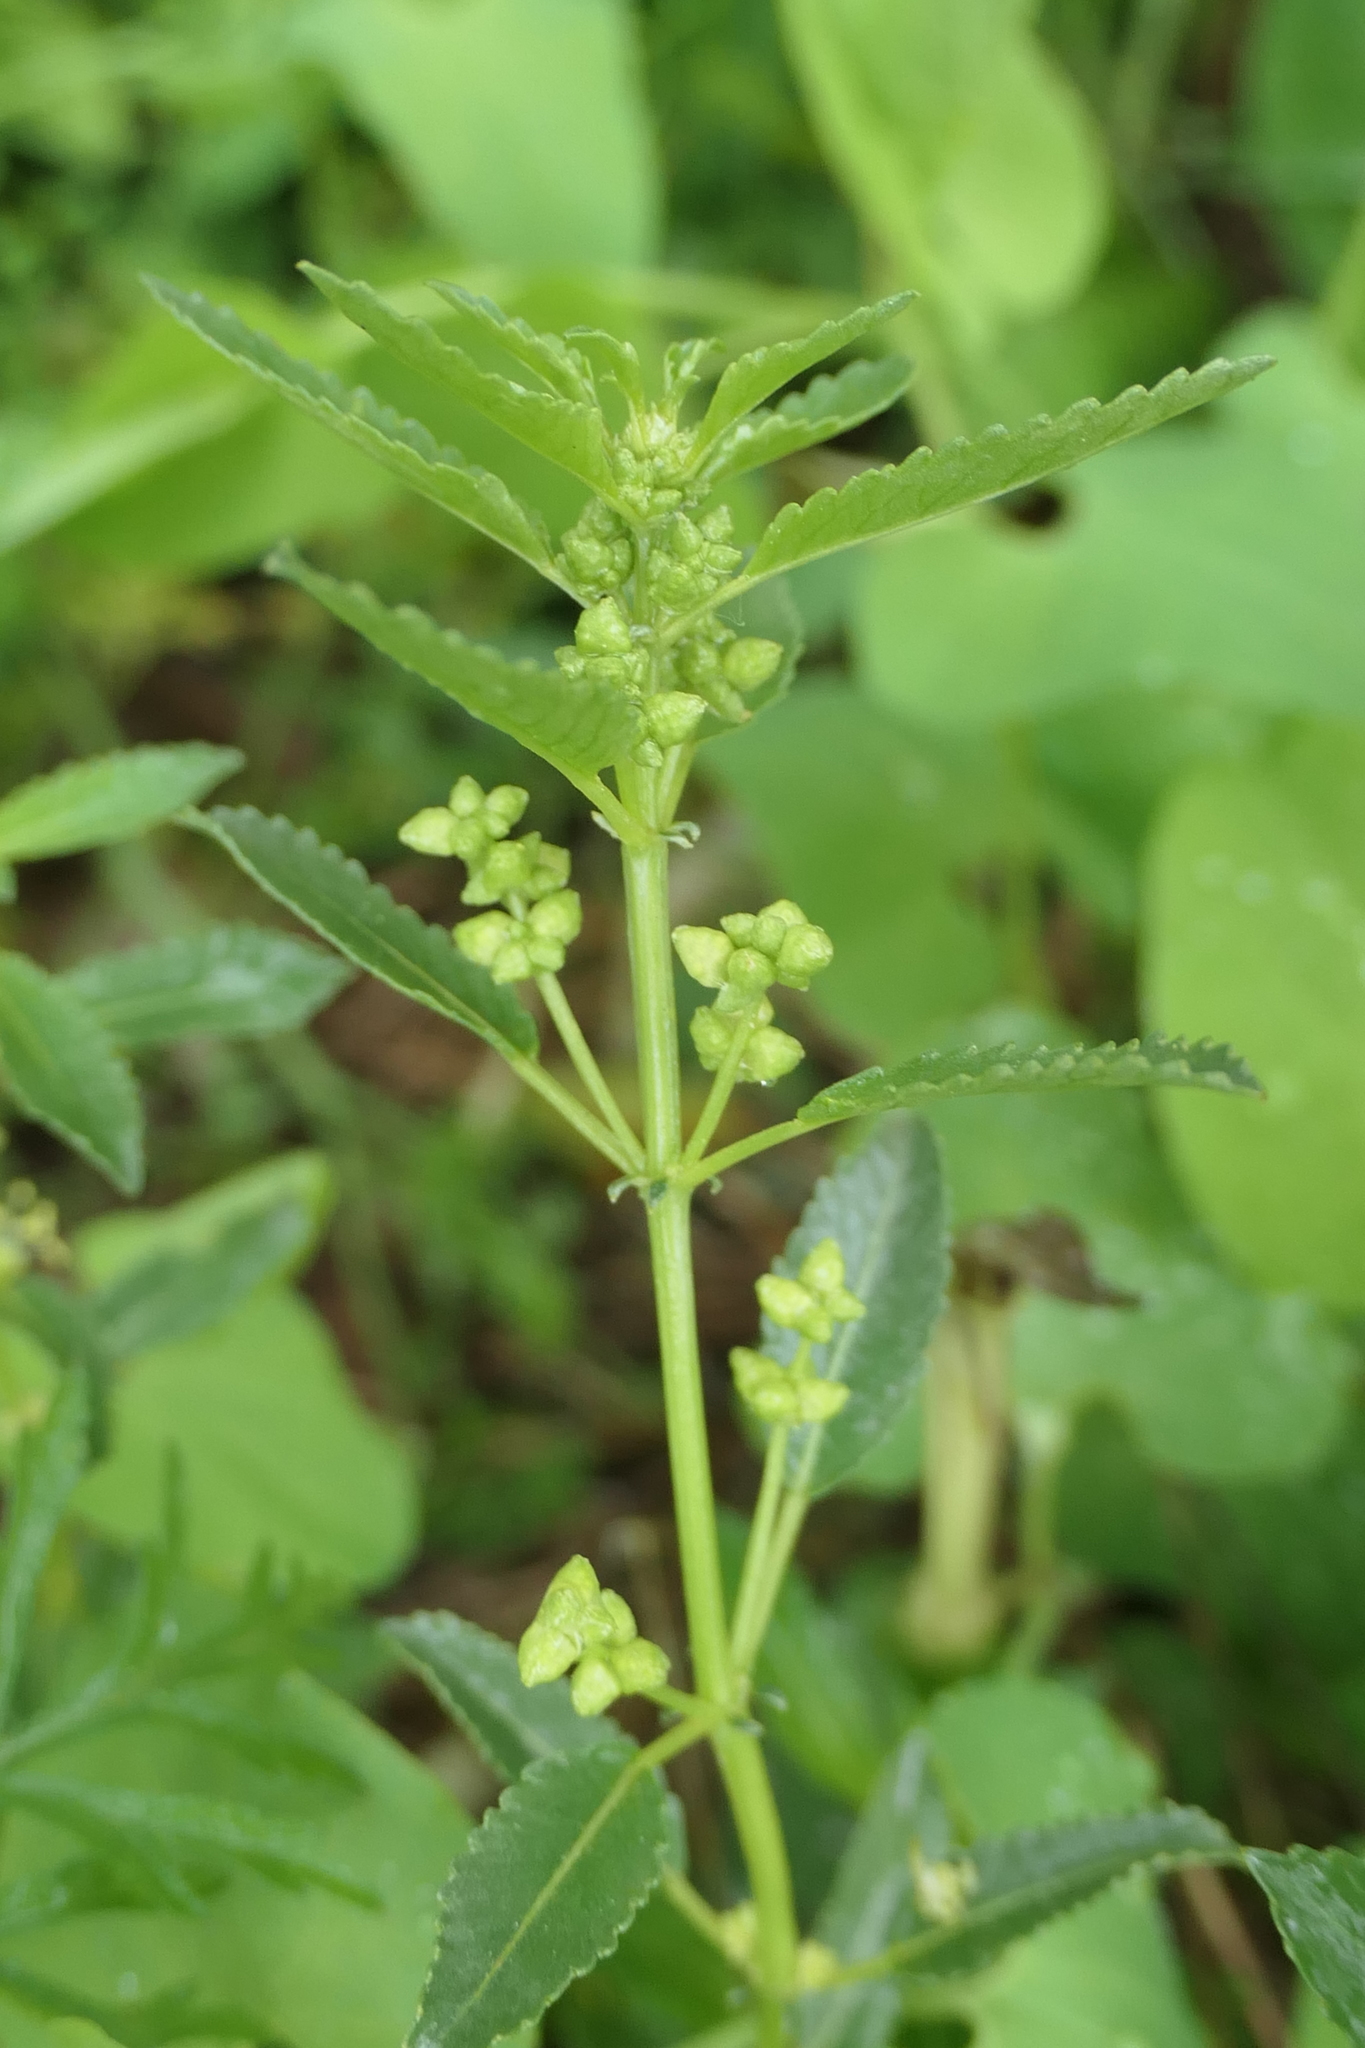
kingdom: Plantae
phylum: Tracheophyta
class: Magnoliopsida
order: Malpighiales
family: Euphorbiaceae
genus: Mercurialis
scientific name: Mercurialis annua
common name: Annual mercury
